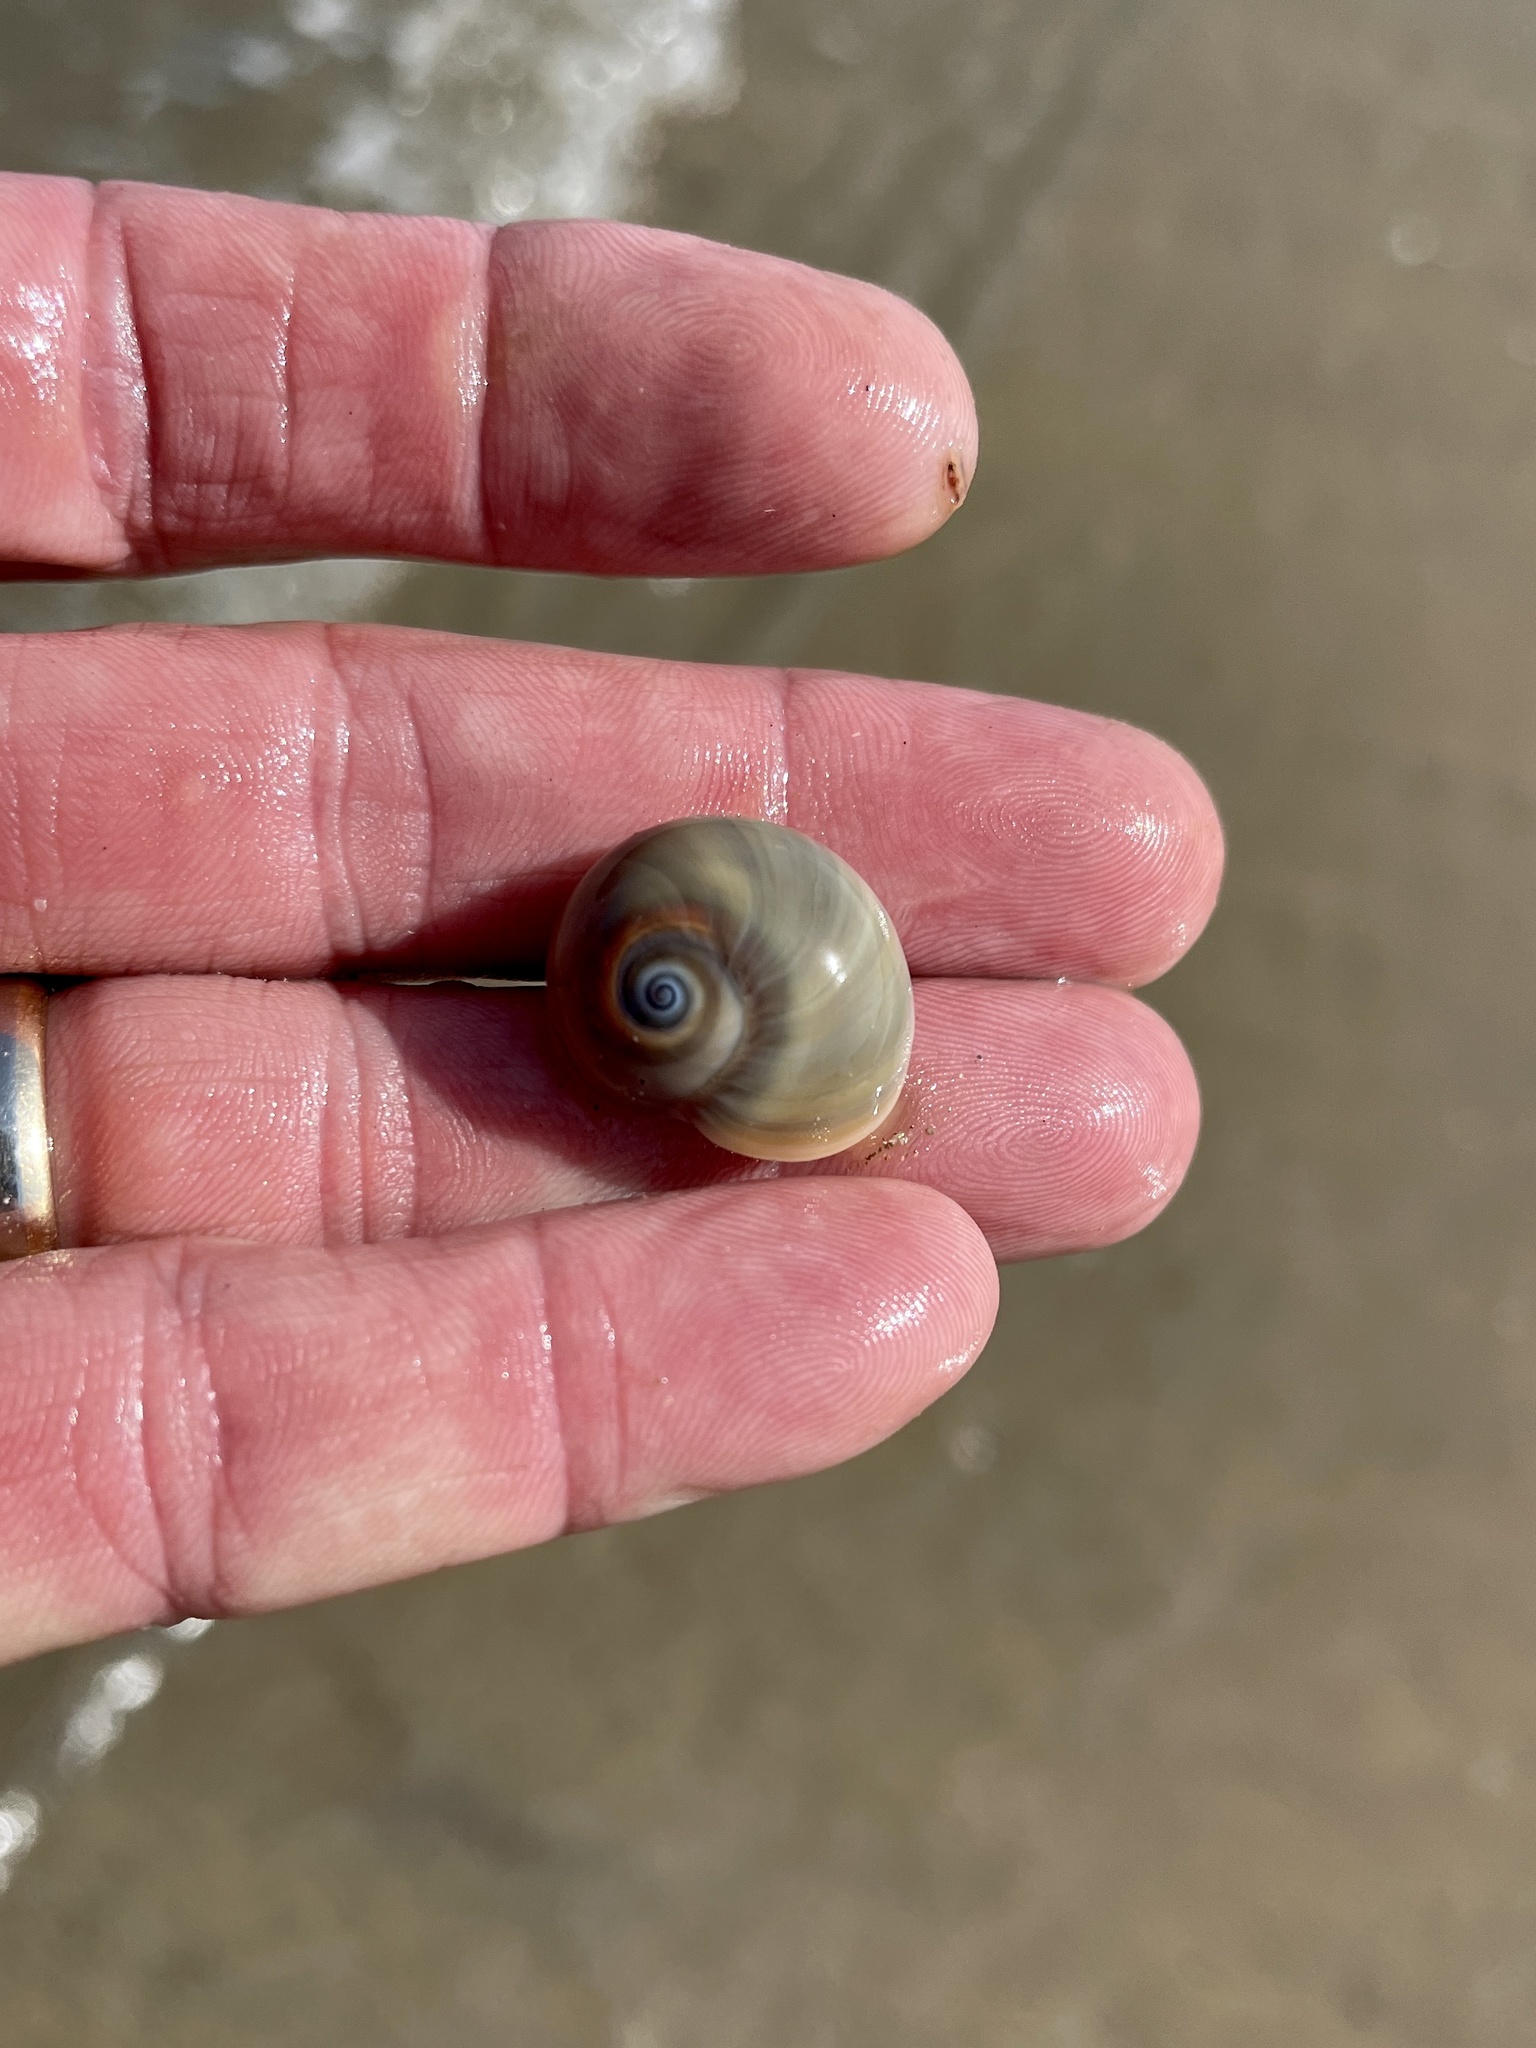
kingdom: Animalia
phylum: Mollusca
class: Gastropoda
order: Littorinimorpha
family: Naticidae
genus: Neverita
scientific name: Neverita duplicata
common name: Lobed moonsnail
